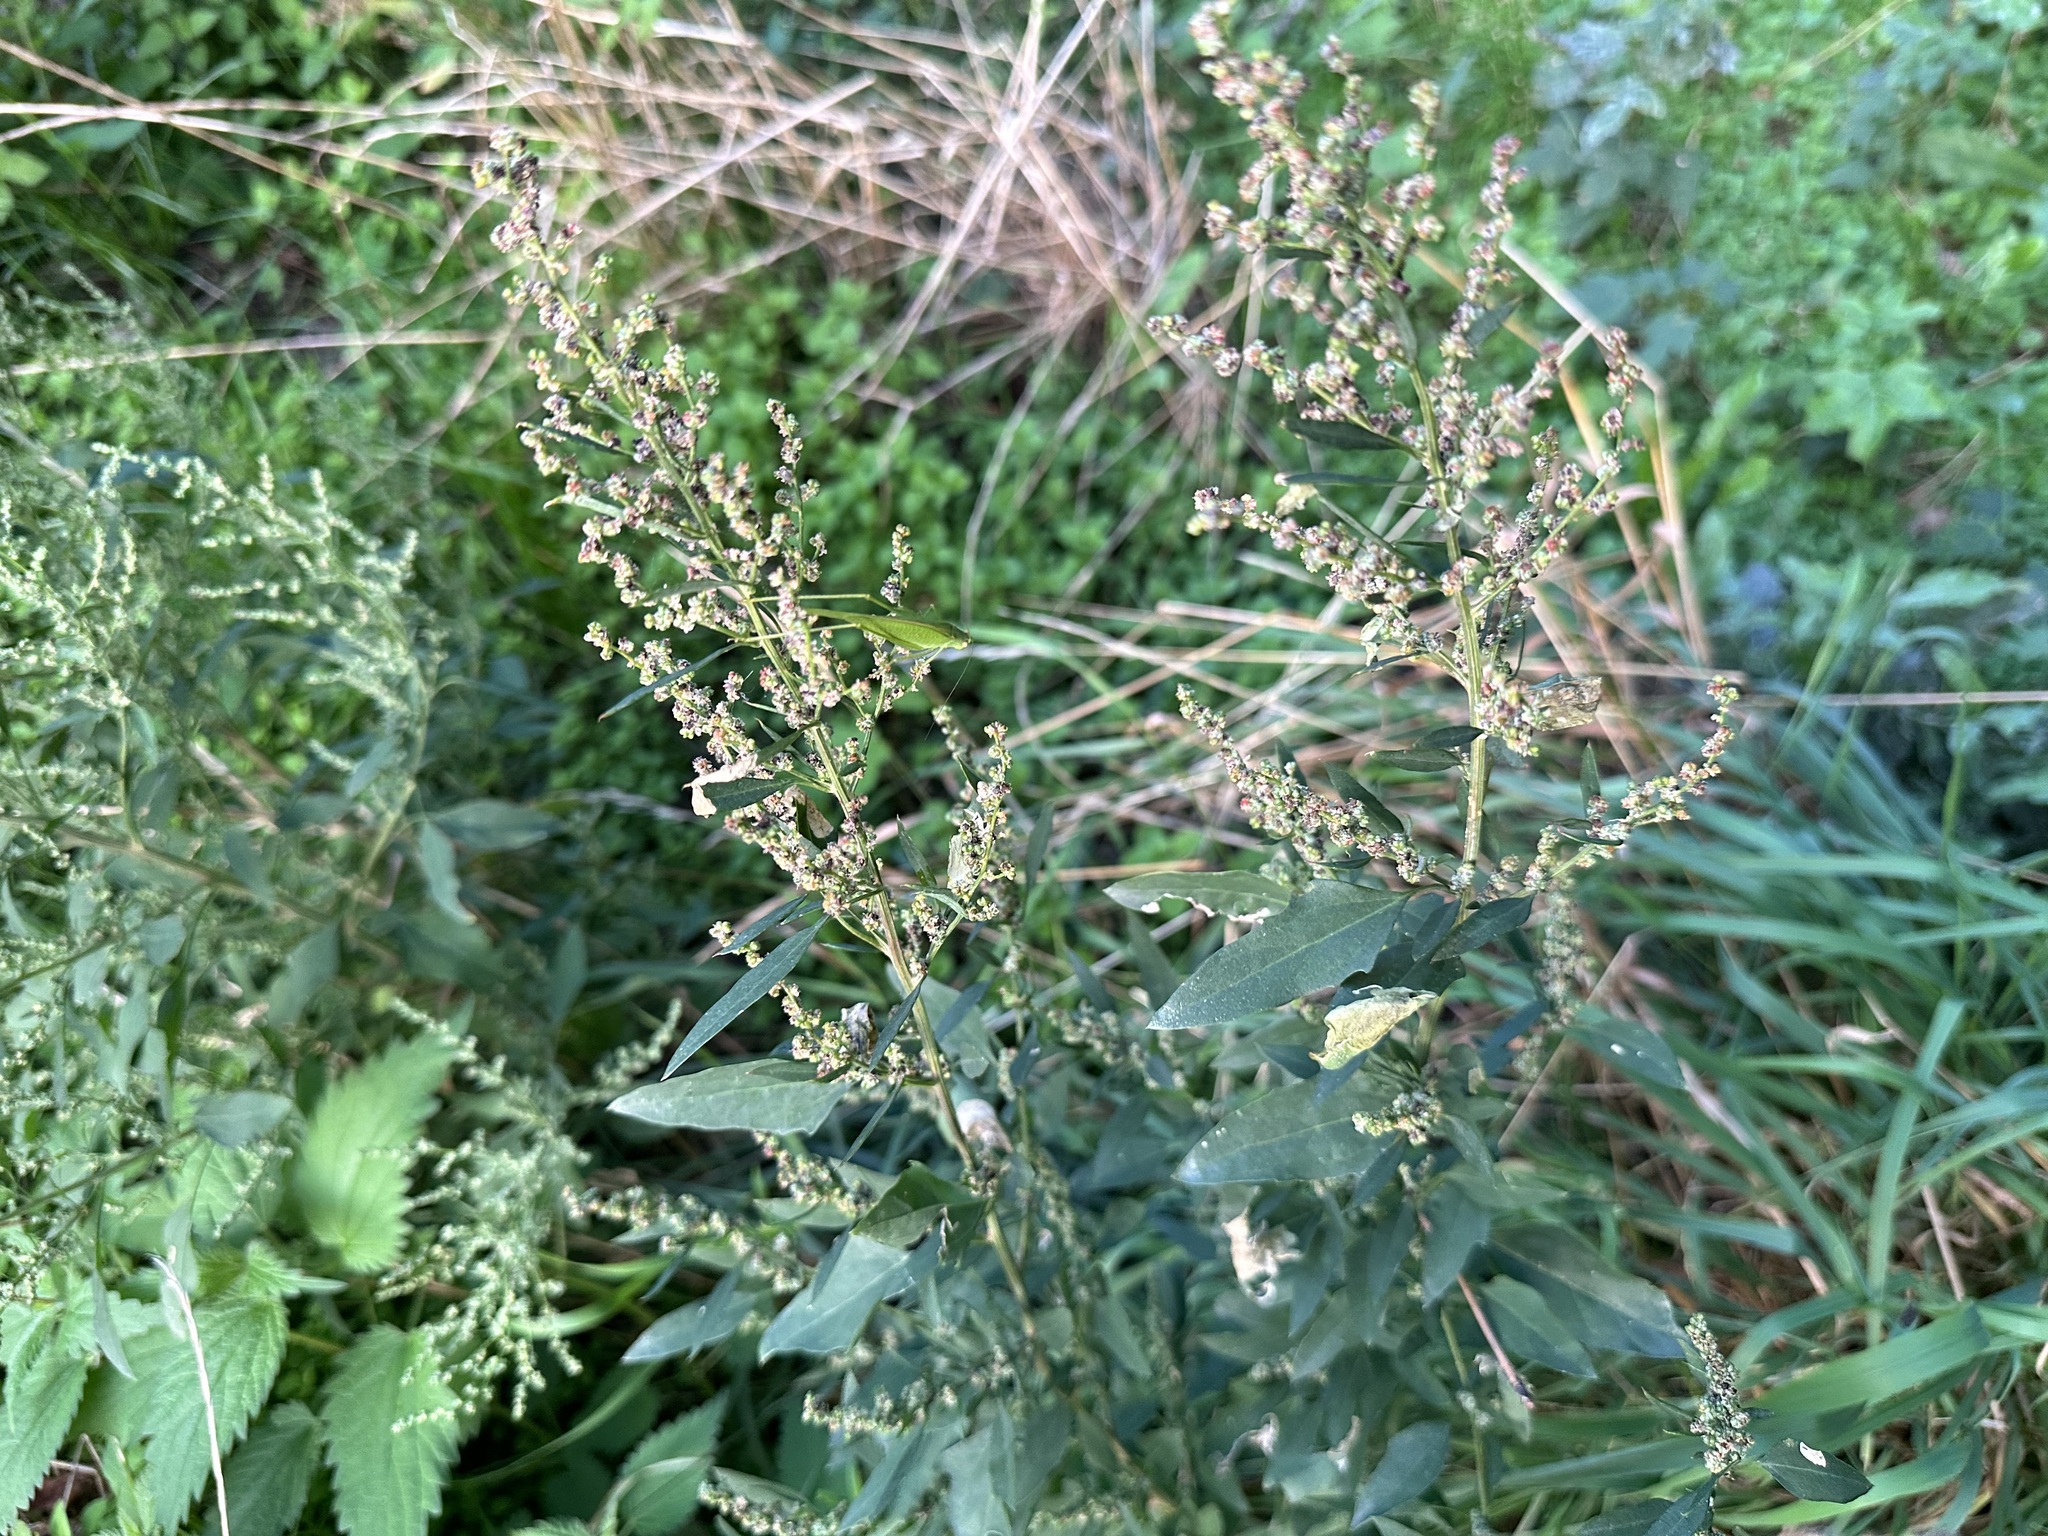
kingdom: Plantae
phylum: Tracheophyta
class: Magnoliopsida
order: Caryophyllales
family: Amaranthaceae
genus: Chenopodium
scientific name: Chenopodium album
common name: Fat-hen
